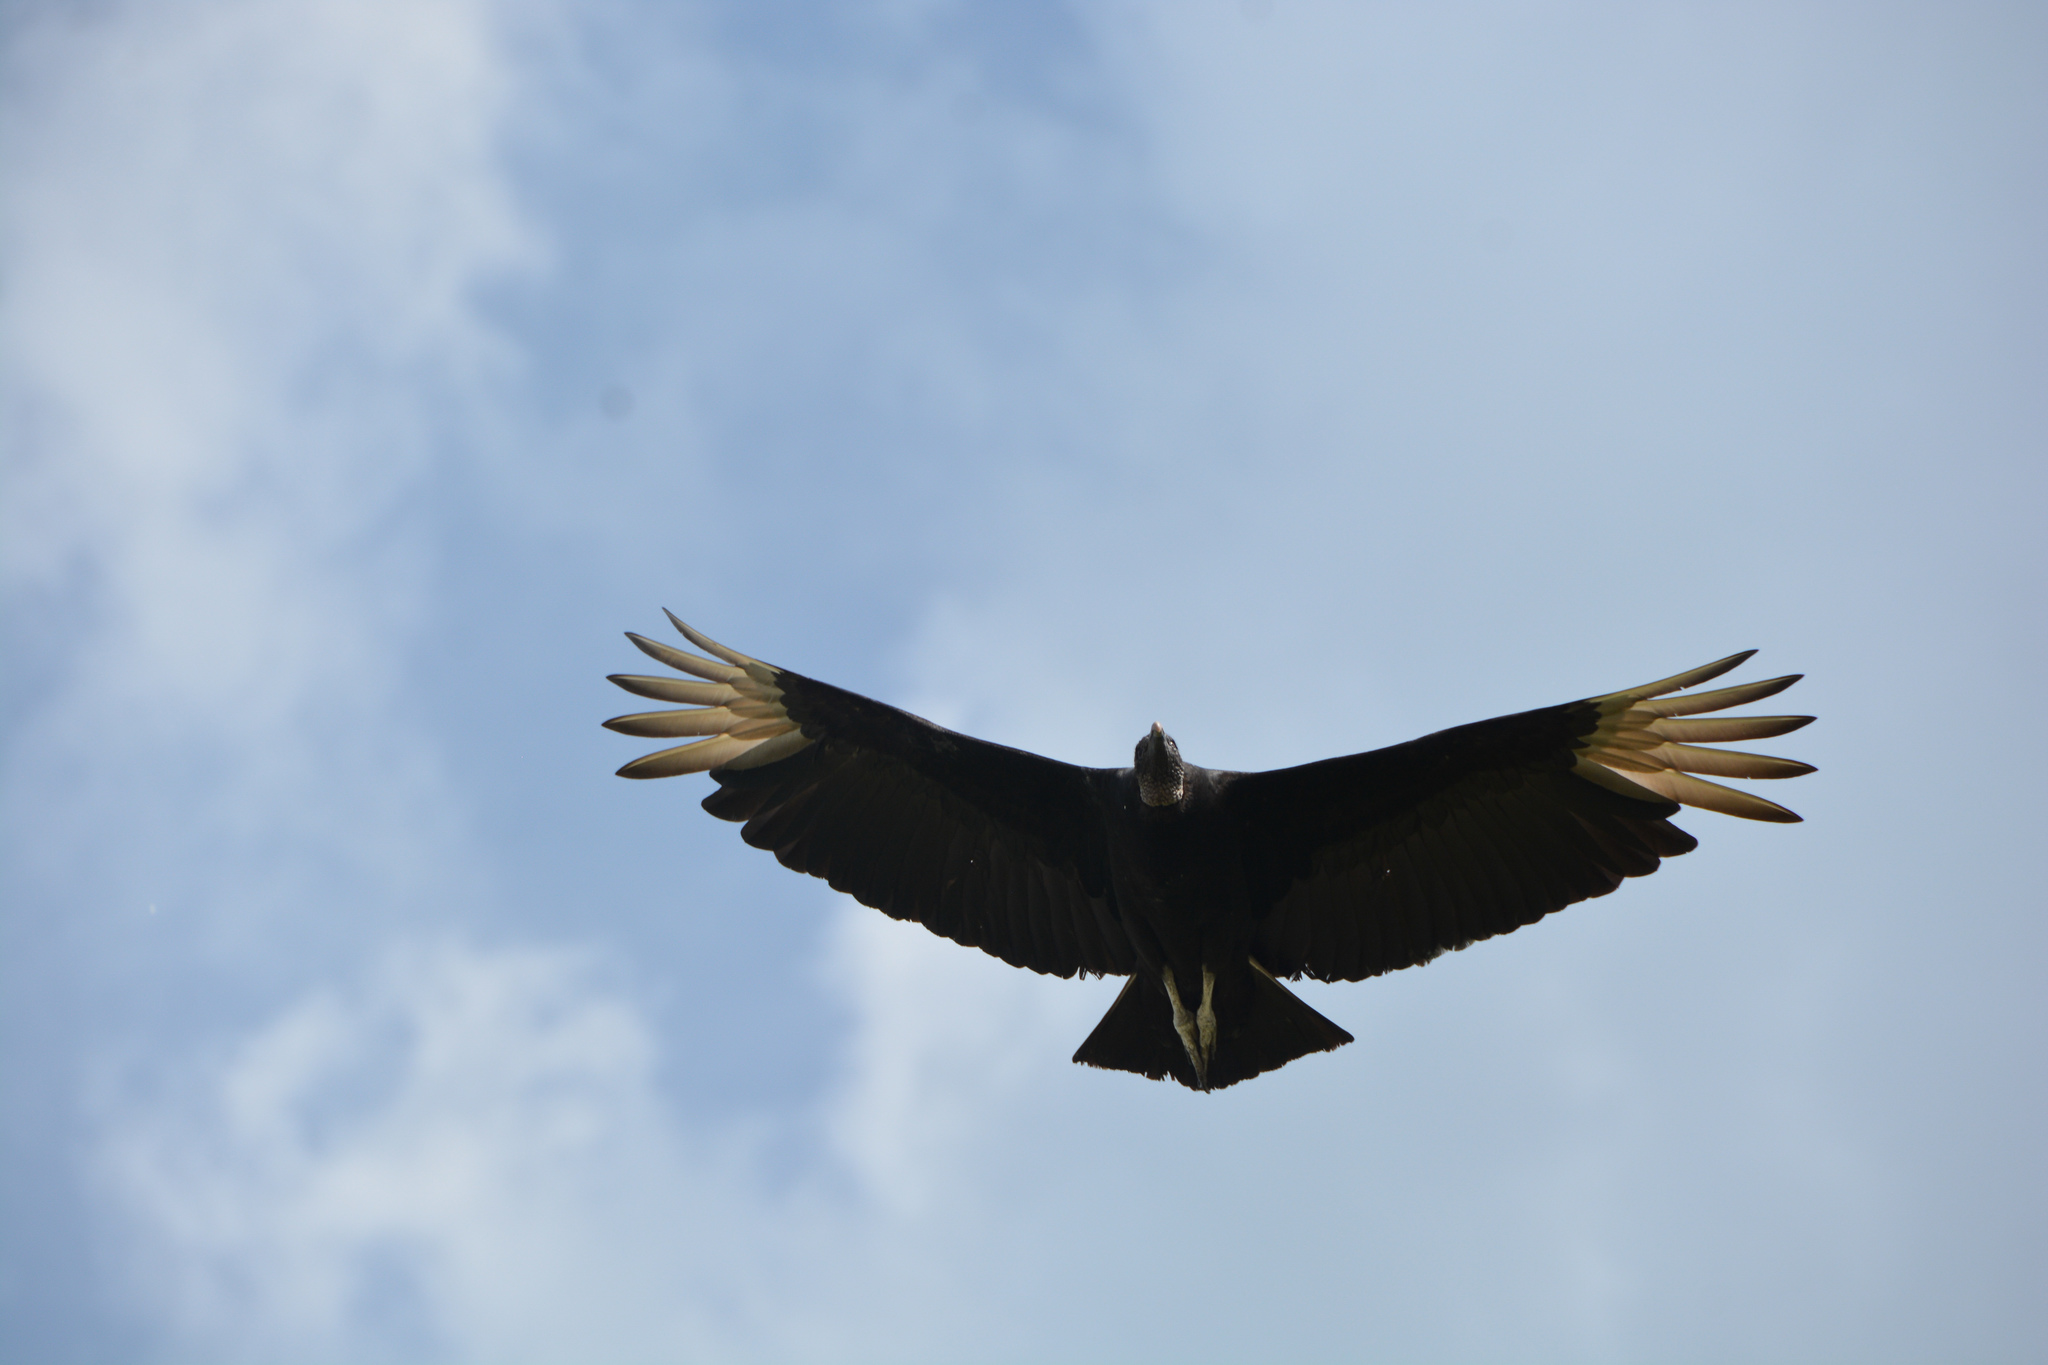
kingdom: Animalia
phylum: Chordata
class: Aves
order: Accipitriformes
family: Cathartidae
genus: Coragyps
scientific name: Coragyps atratus
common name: Black vulture
